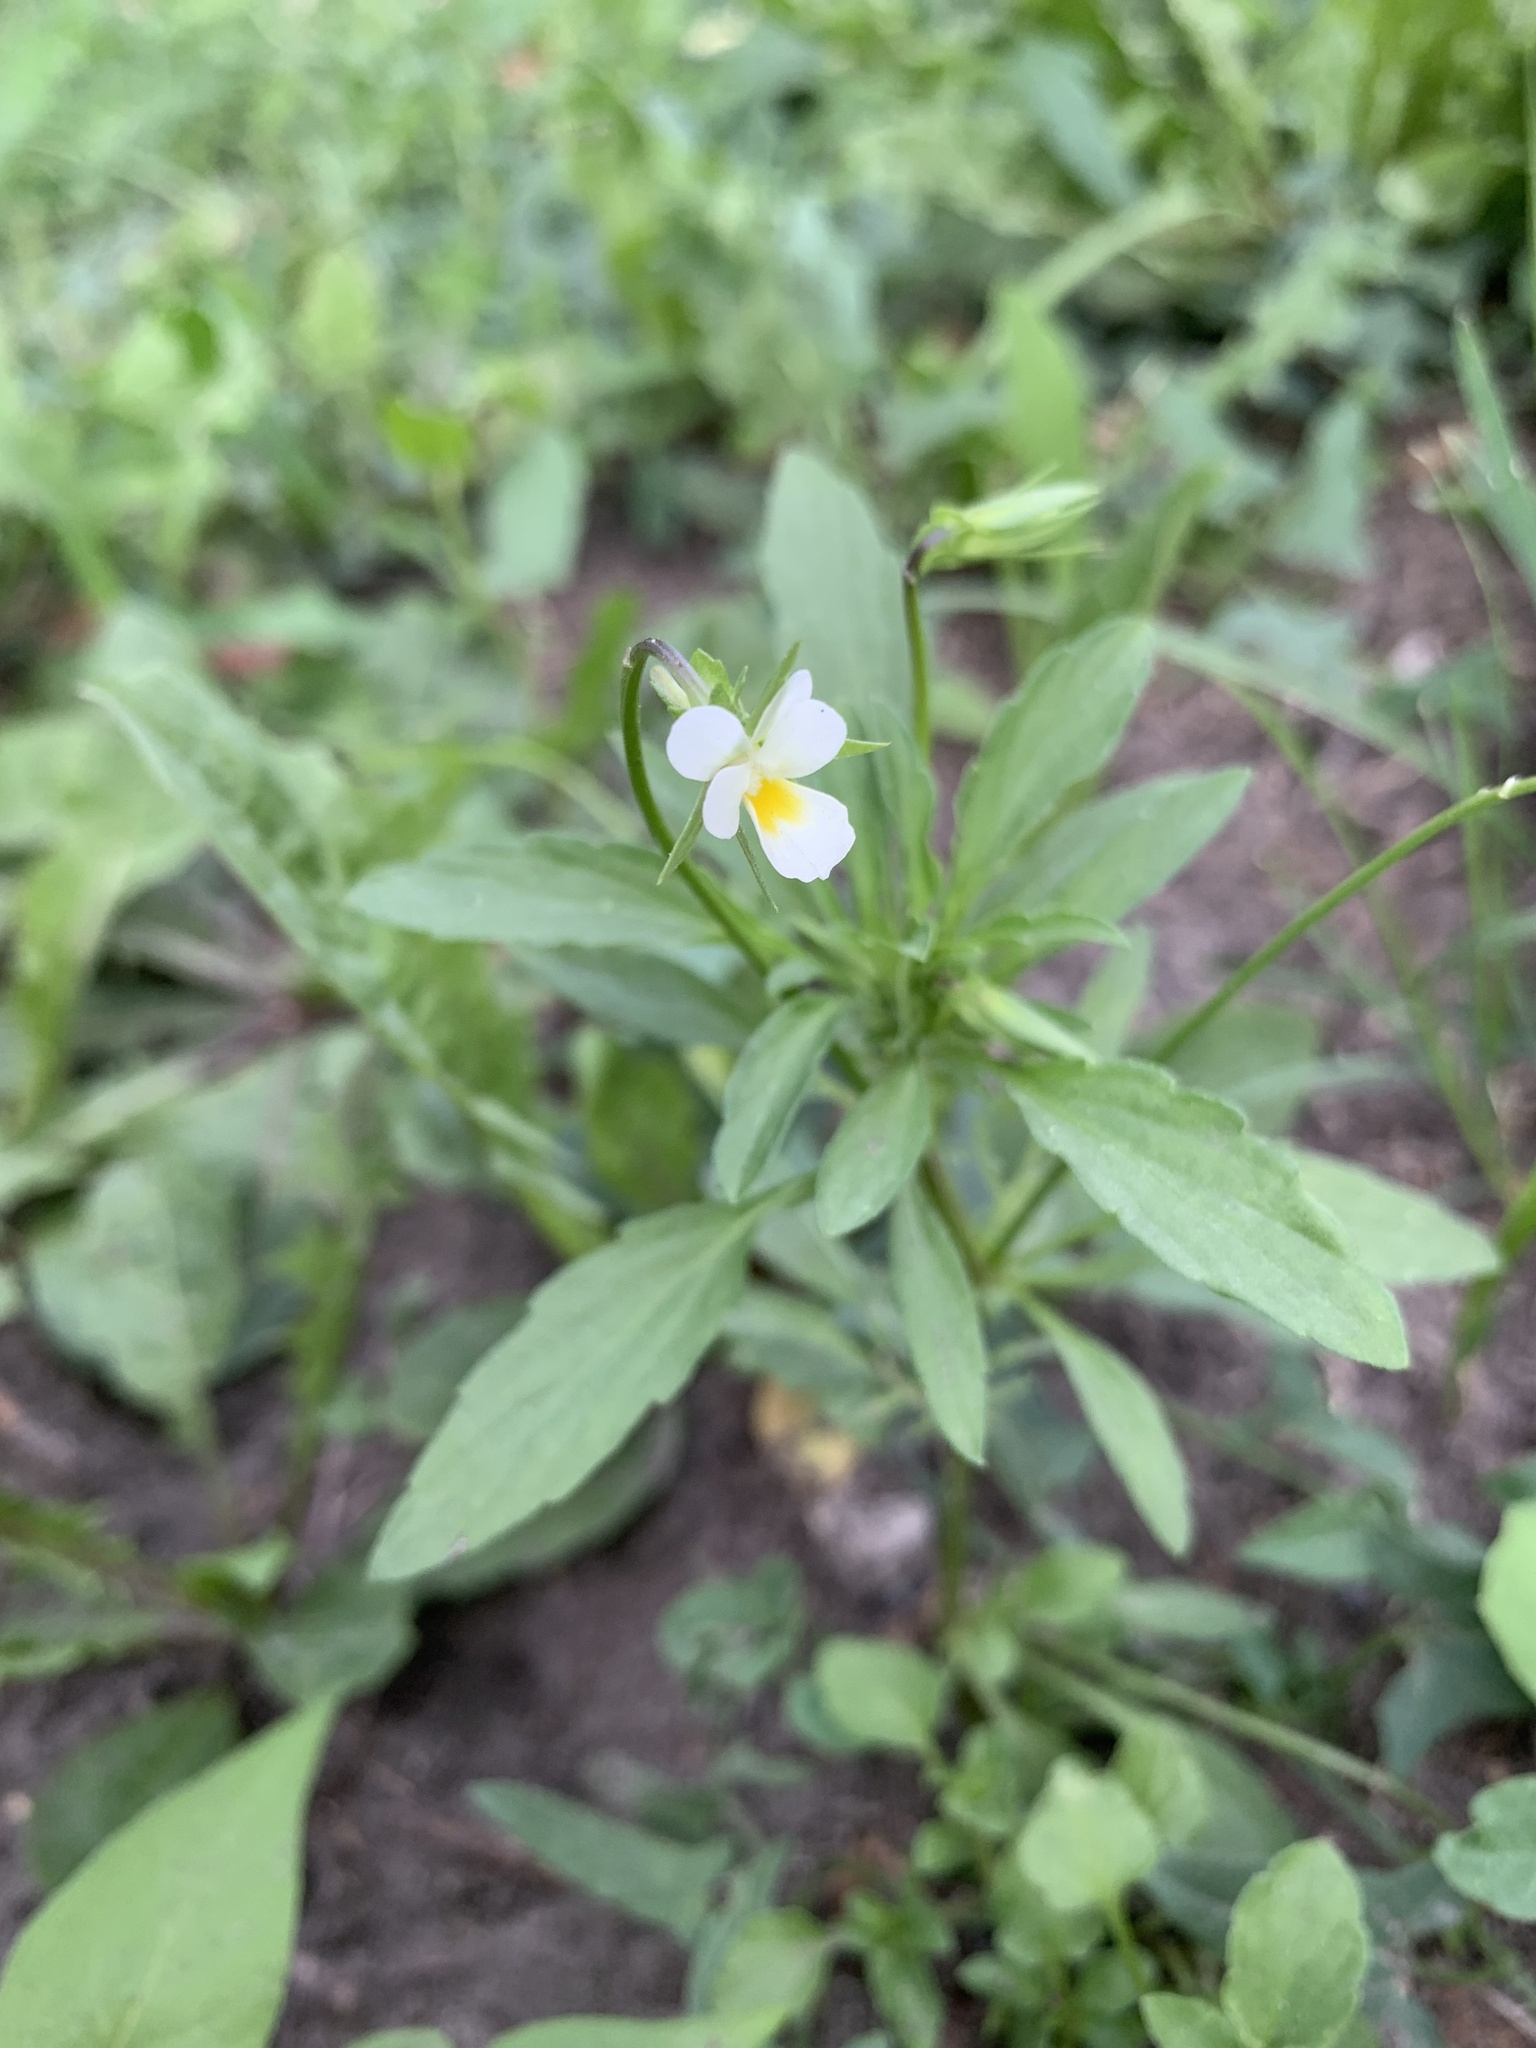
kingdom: Plantae
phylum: Tracheophyta
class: Magnoliopsida
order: Malpighiales
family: Violaceae
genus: Viola
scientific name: Viola arvensis
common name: Field pansy
